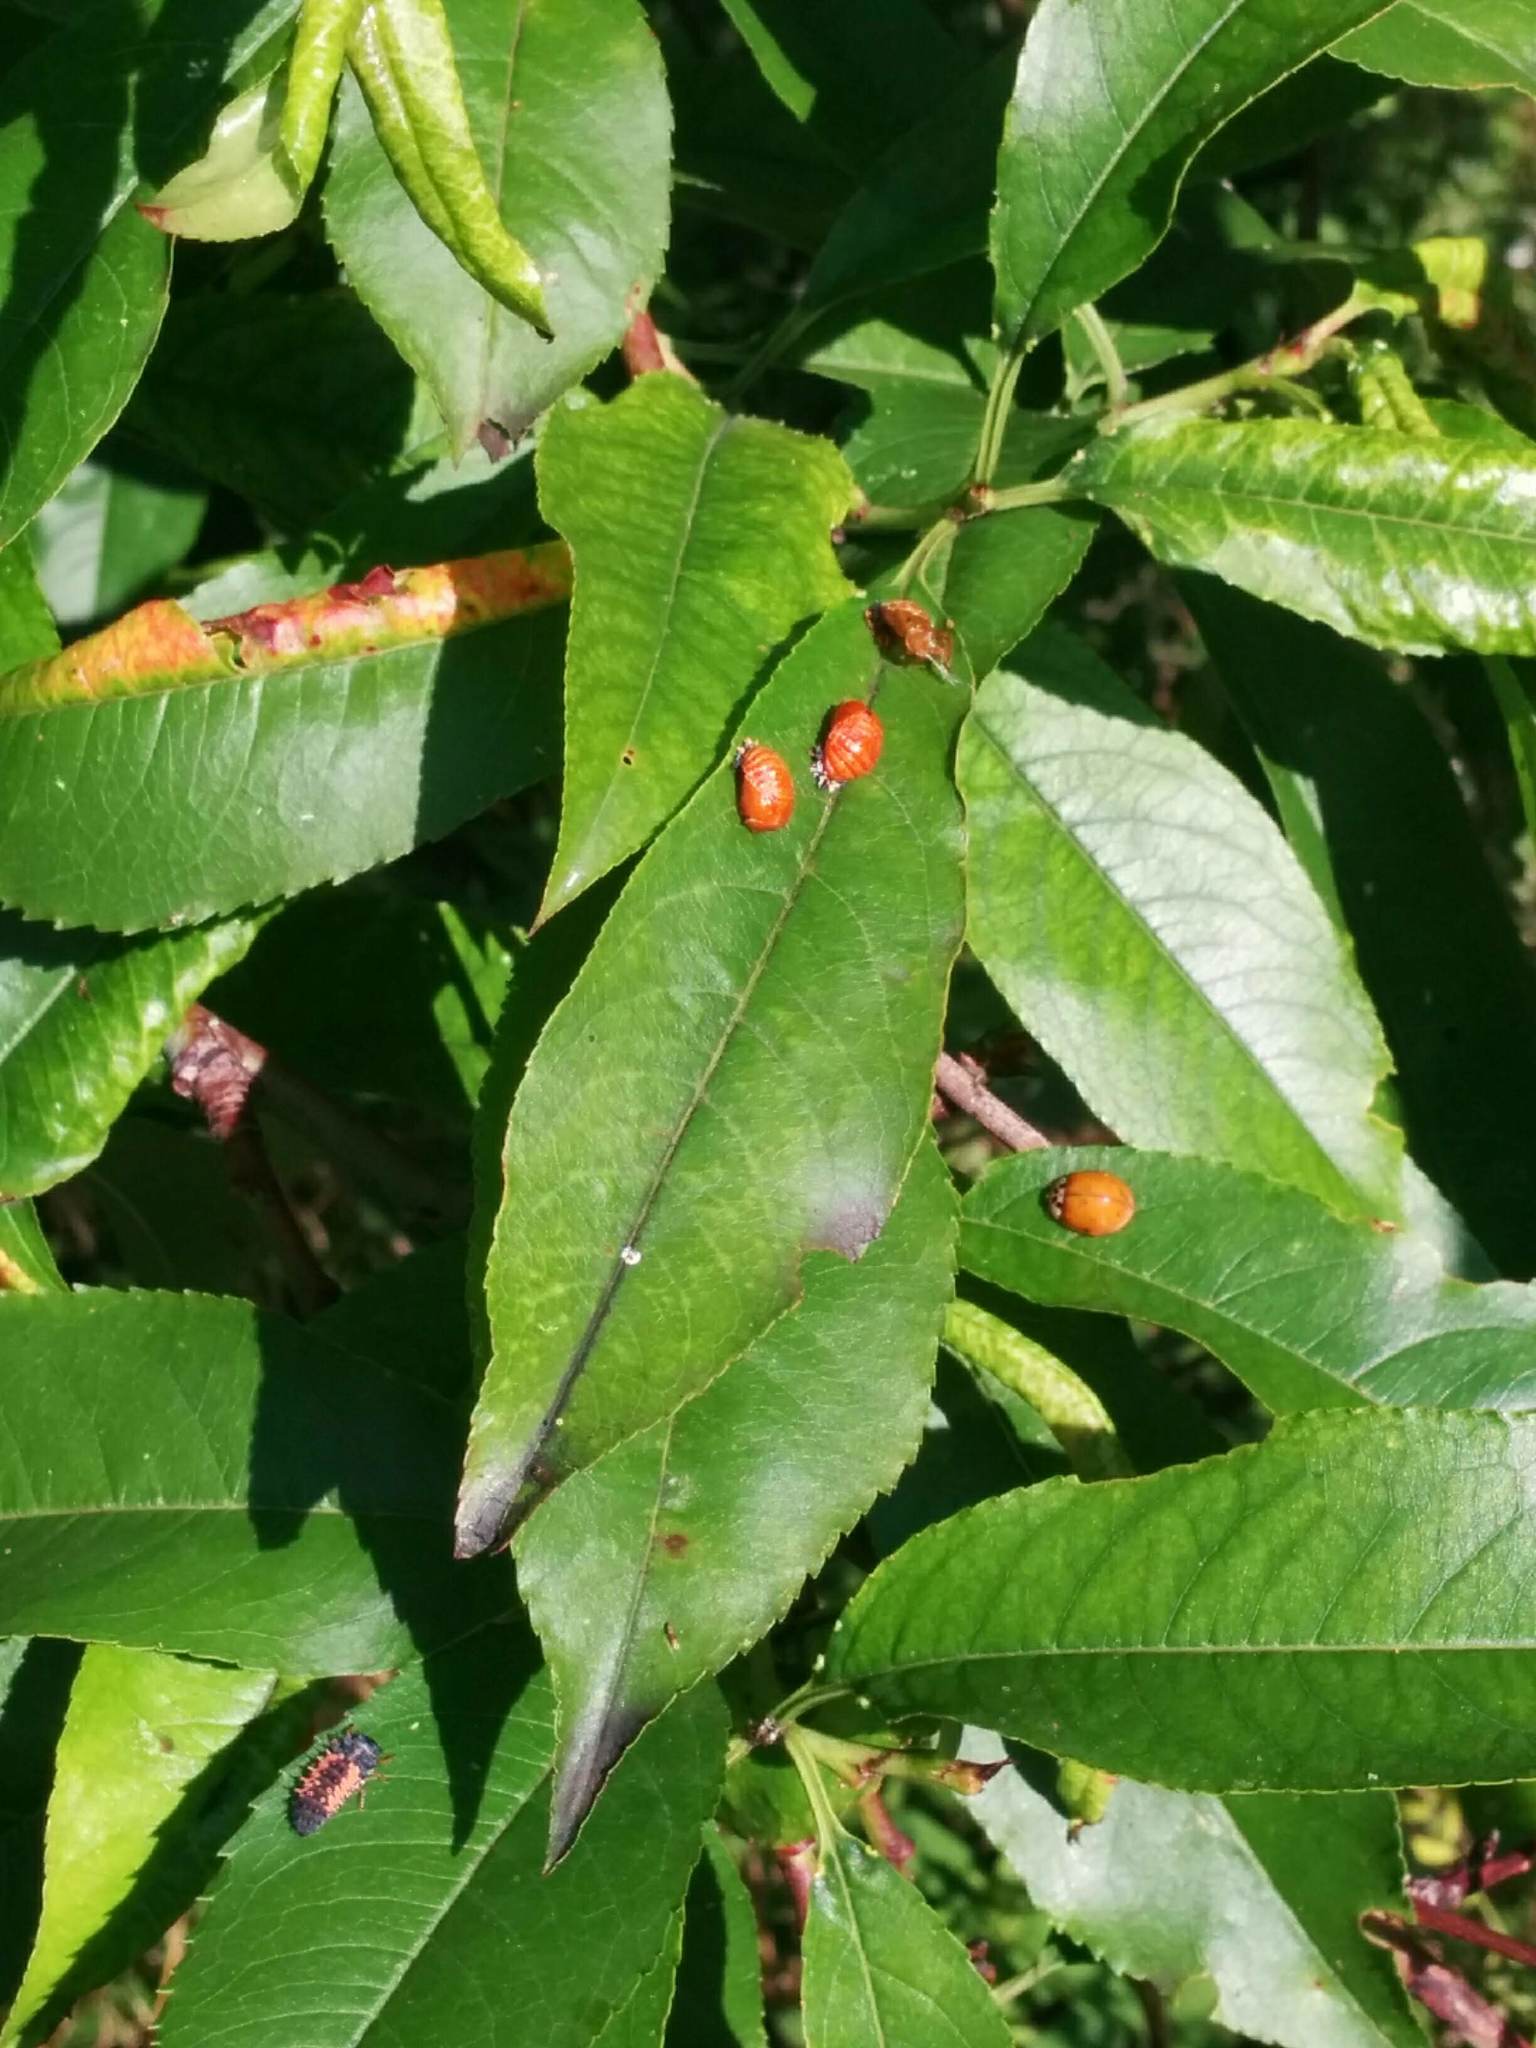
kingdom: Animalia
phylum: Arthropoda
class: Insecta
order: Coleoptera
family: Coccinellidae
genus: Harmonia
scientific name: Harmonia axyridis
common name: Harlequin ladybird
